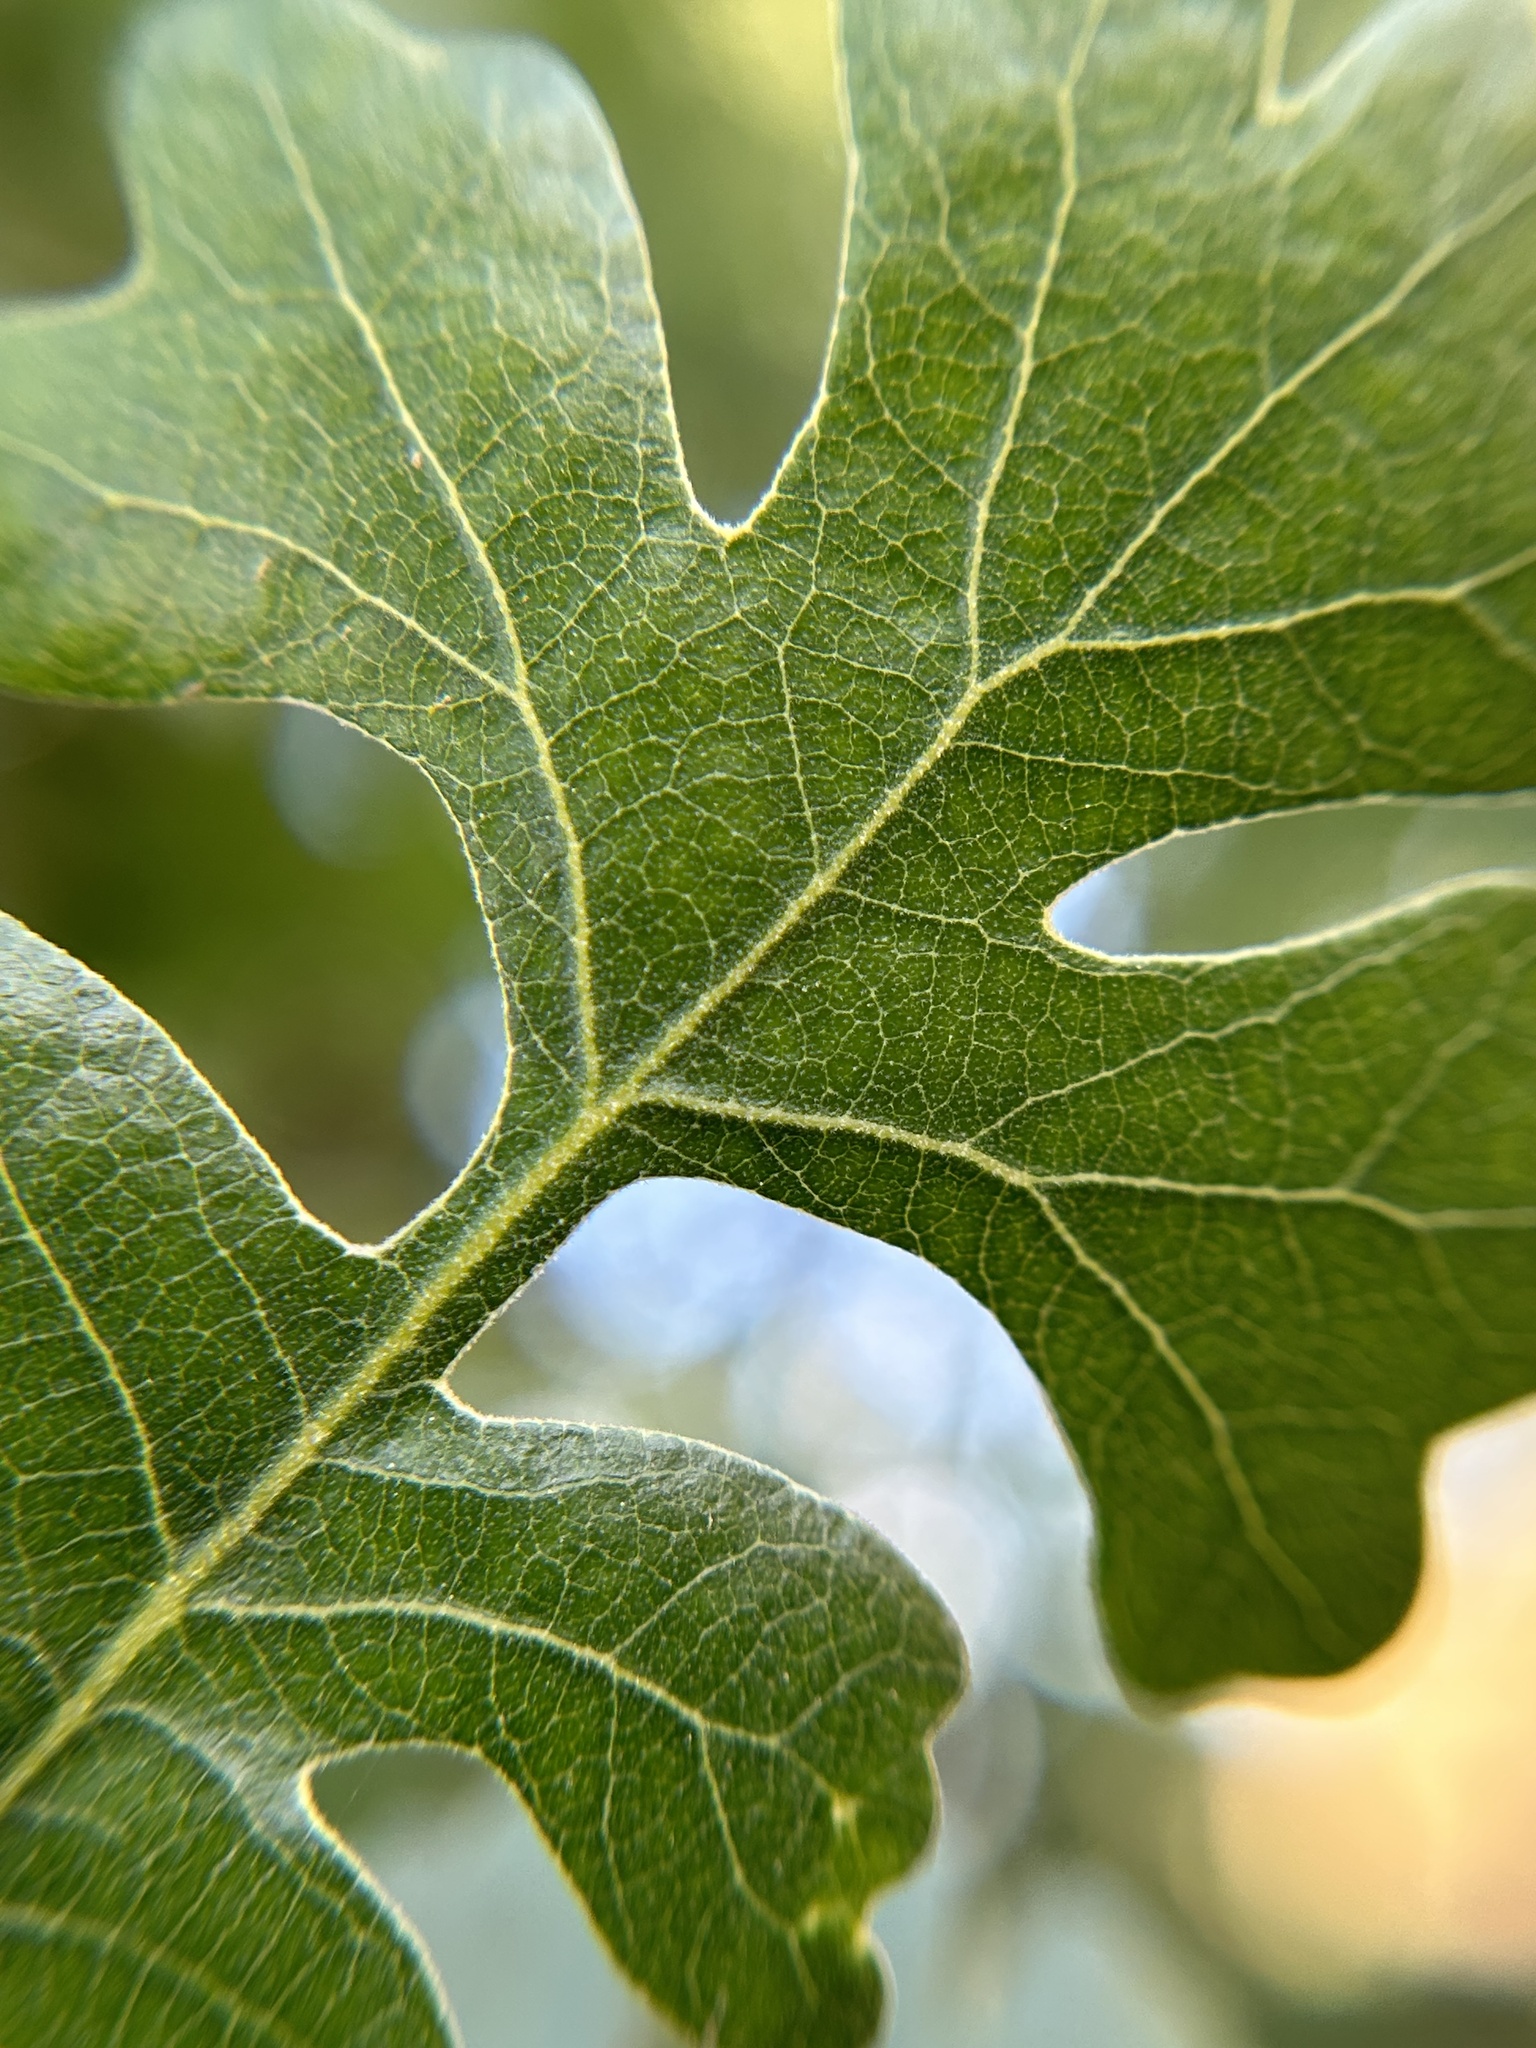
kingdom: Plantae
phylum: Tracheophyta
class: Magnoliopsida
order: Fagales
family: Fagaceae
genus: Quercus
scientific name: Quercus lobata
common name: Valley oak
